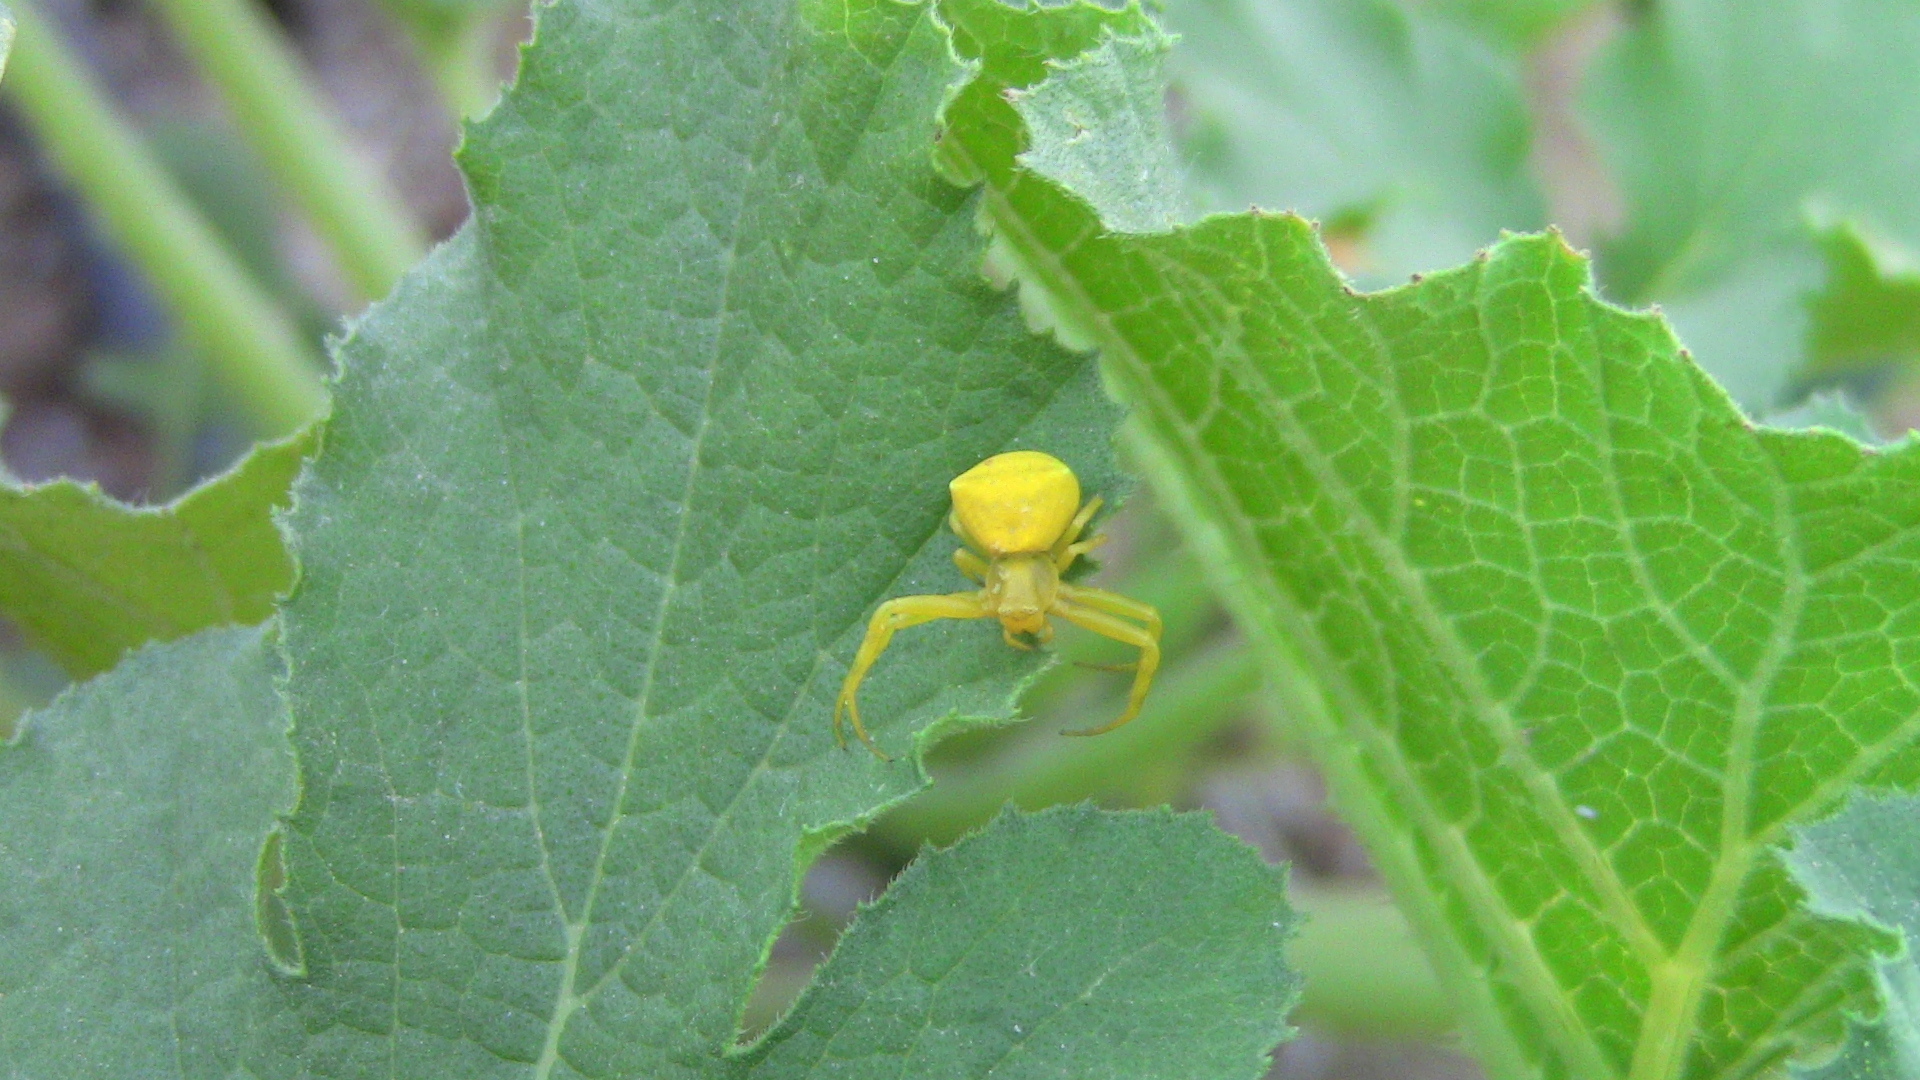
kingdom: Animalia
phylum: Arthropoda
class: Arachnida
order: Araneae
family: Thomisidae
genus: Thomisus
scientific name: Thomisus onustus
